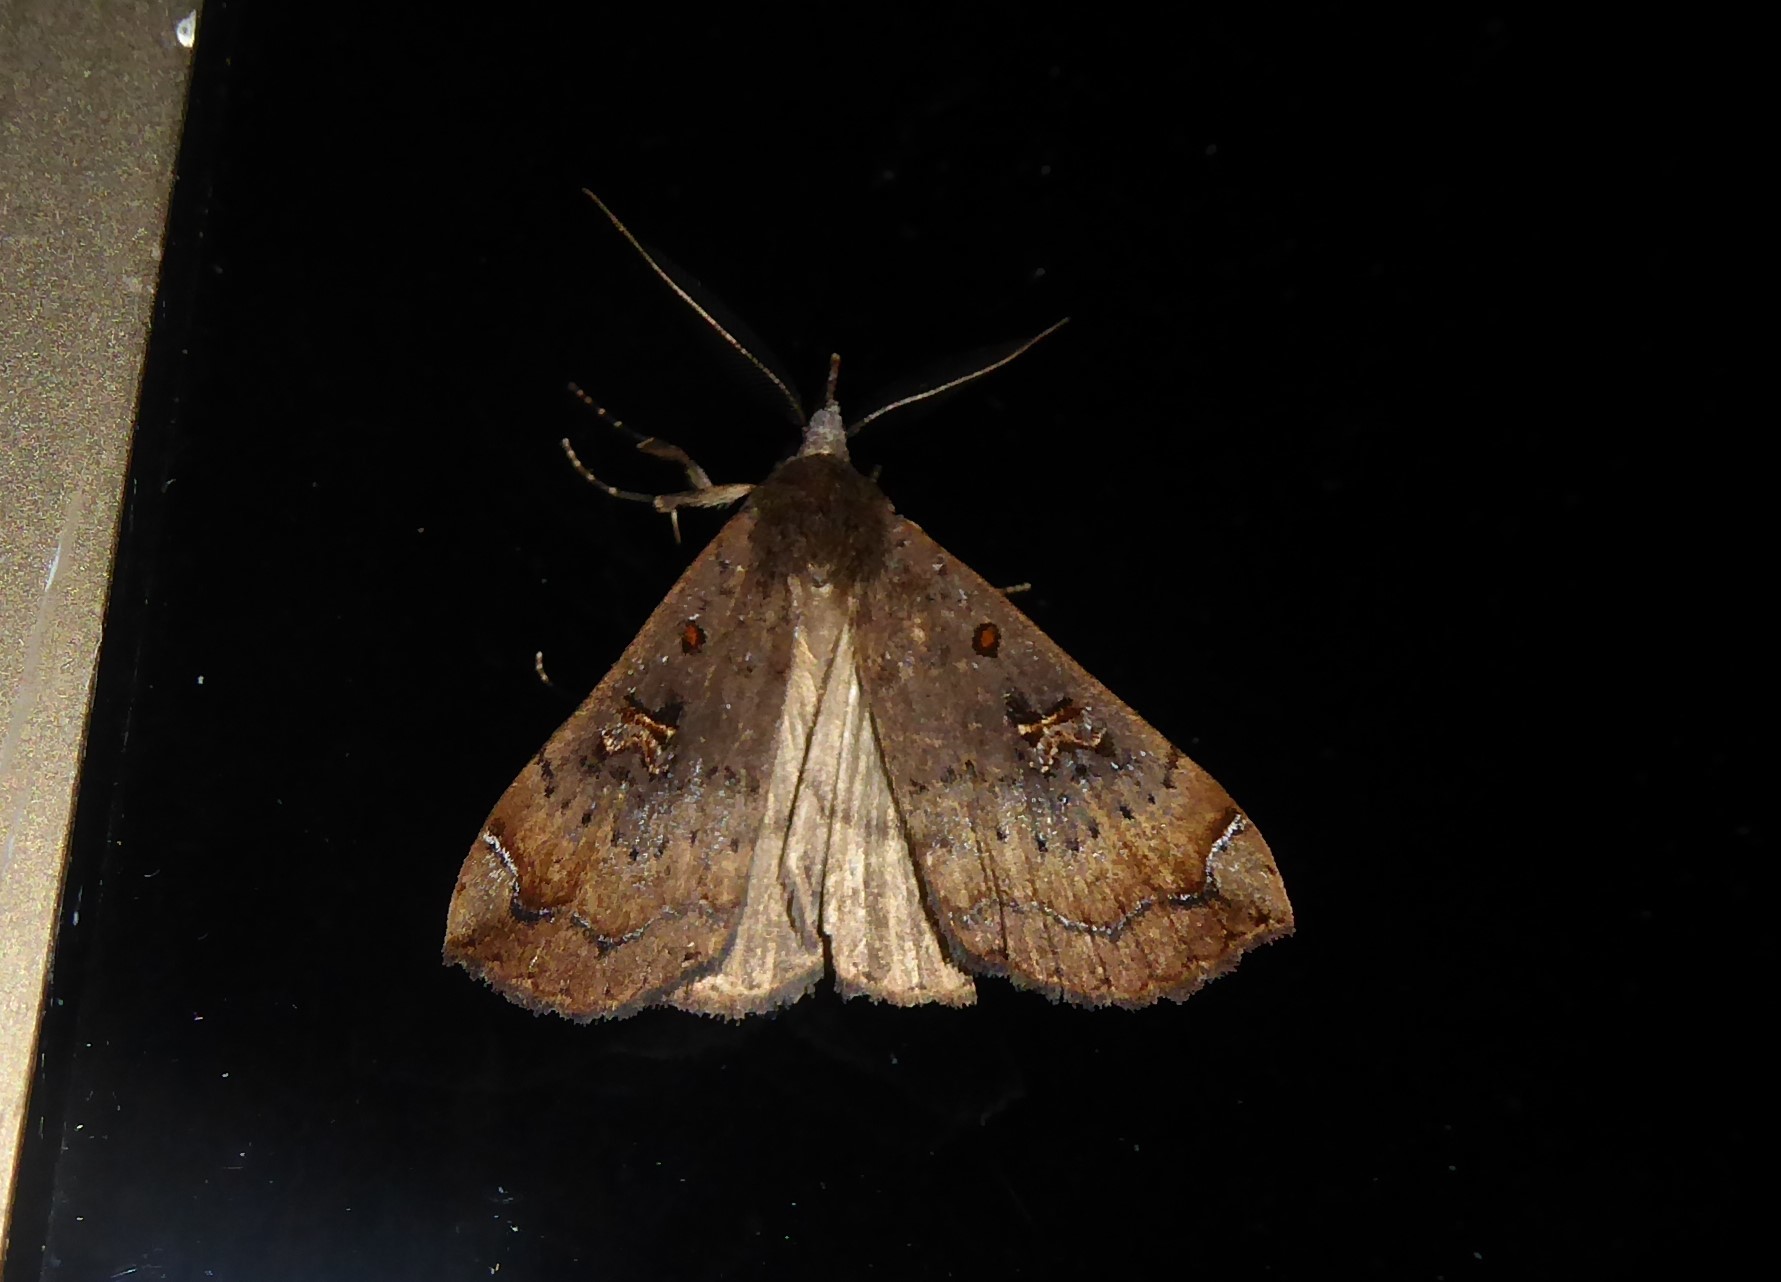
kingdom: Animalia
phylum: Arthropoda
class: Insecta
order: Lepidoptera
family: Erebidae
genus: Rhapsa
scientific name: Rhapsa scotosialis
